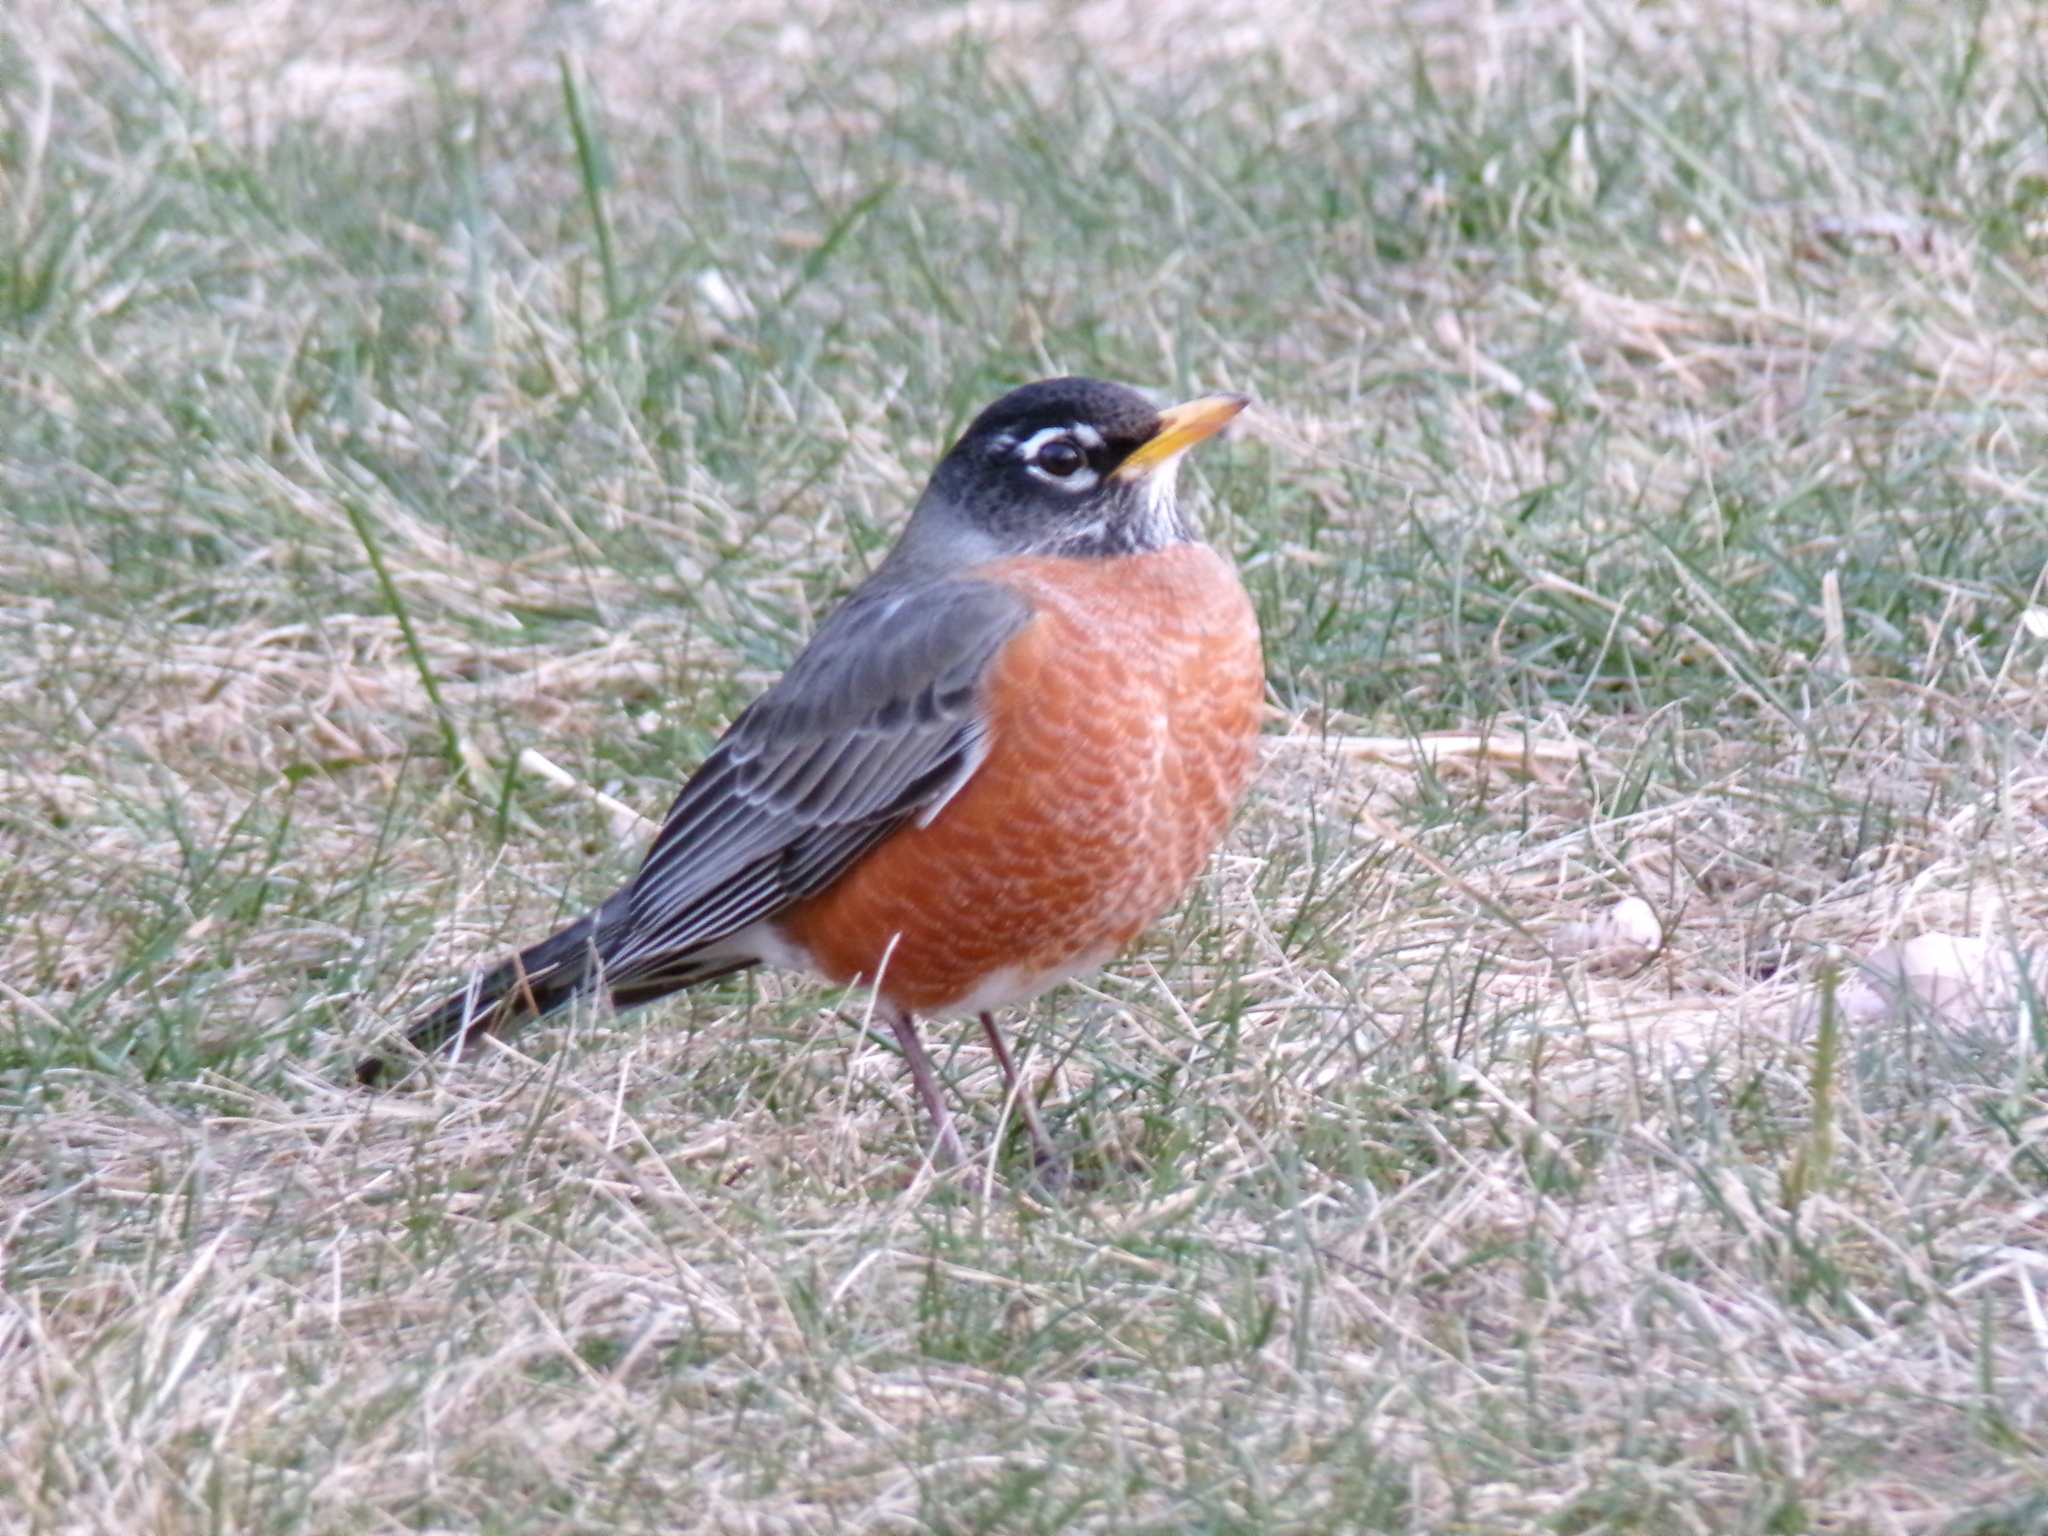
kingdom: Animalia
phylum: Chordata
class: Aves
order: Passeriformes
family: Turdidae
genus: Turdus
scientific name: Turdus migratorius
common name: American robin
